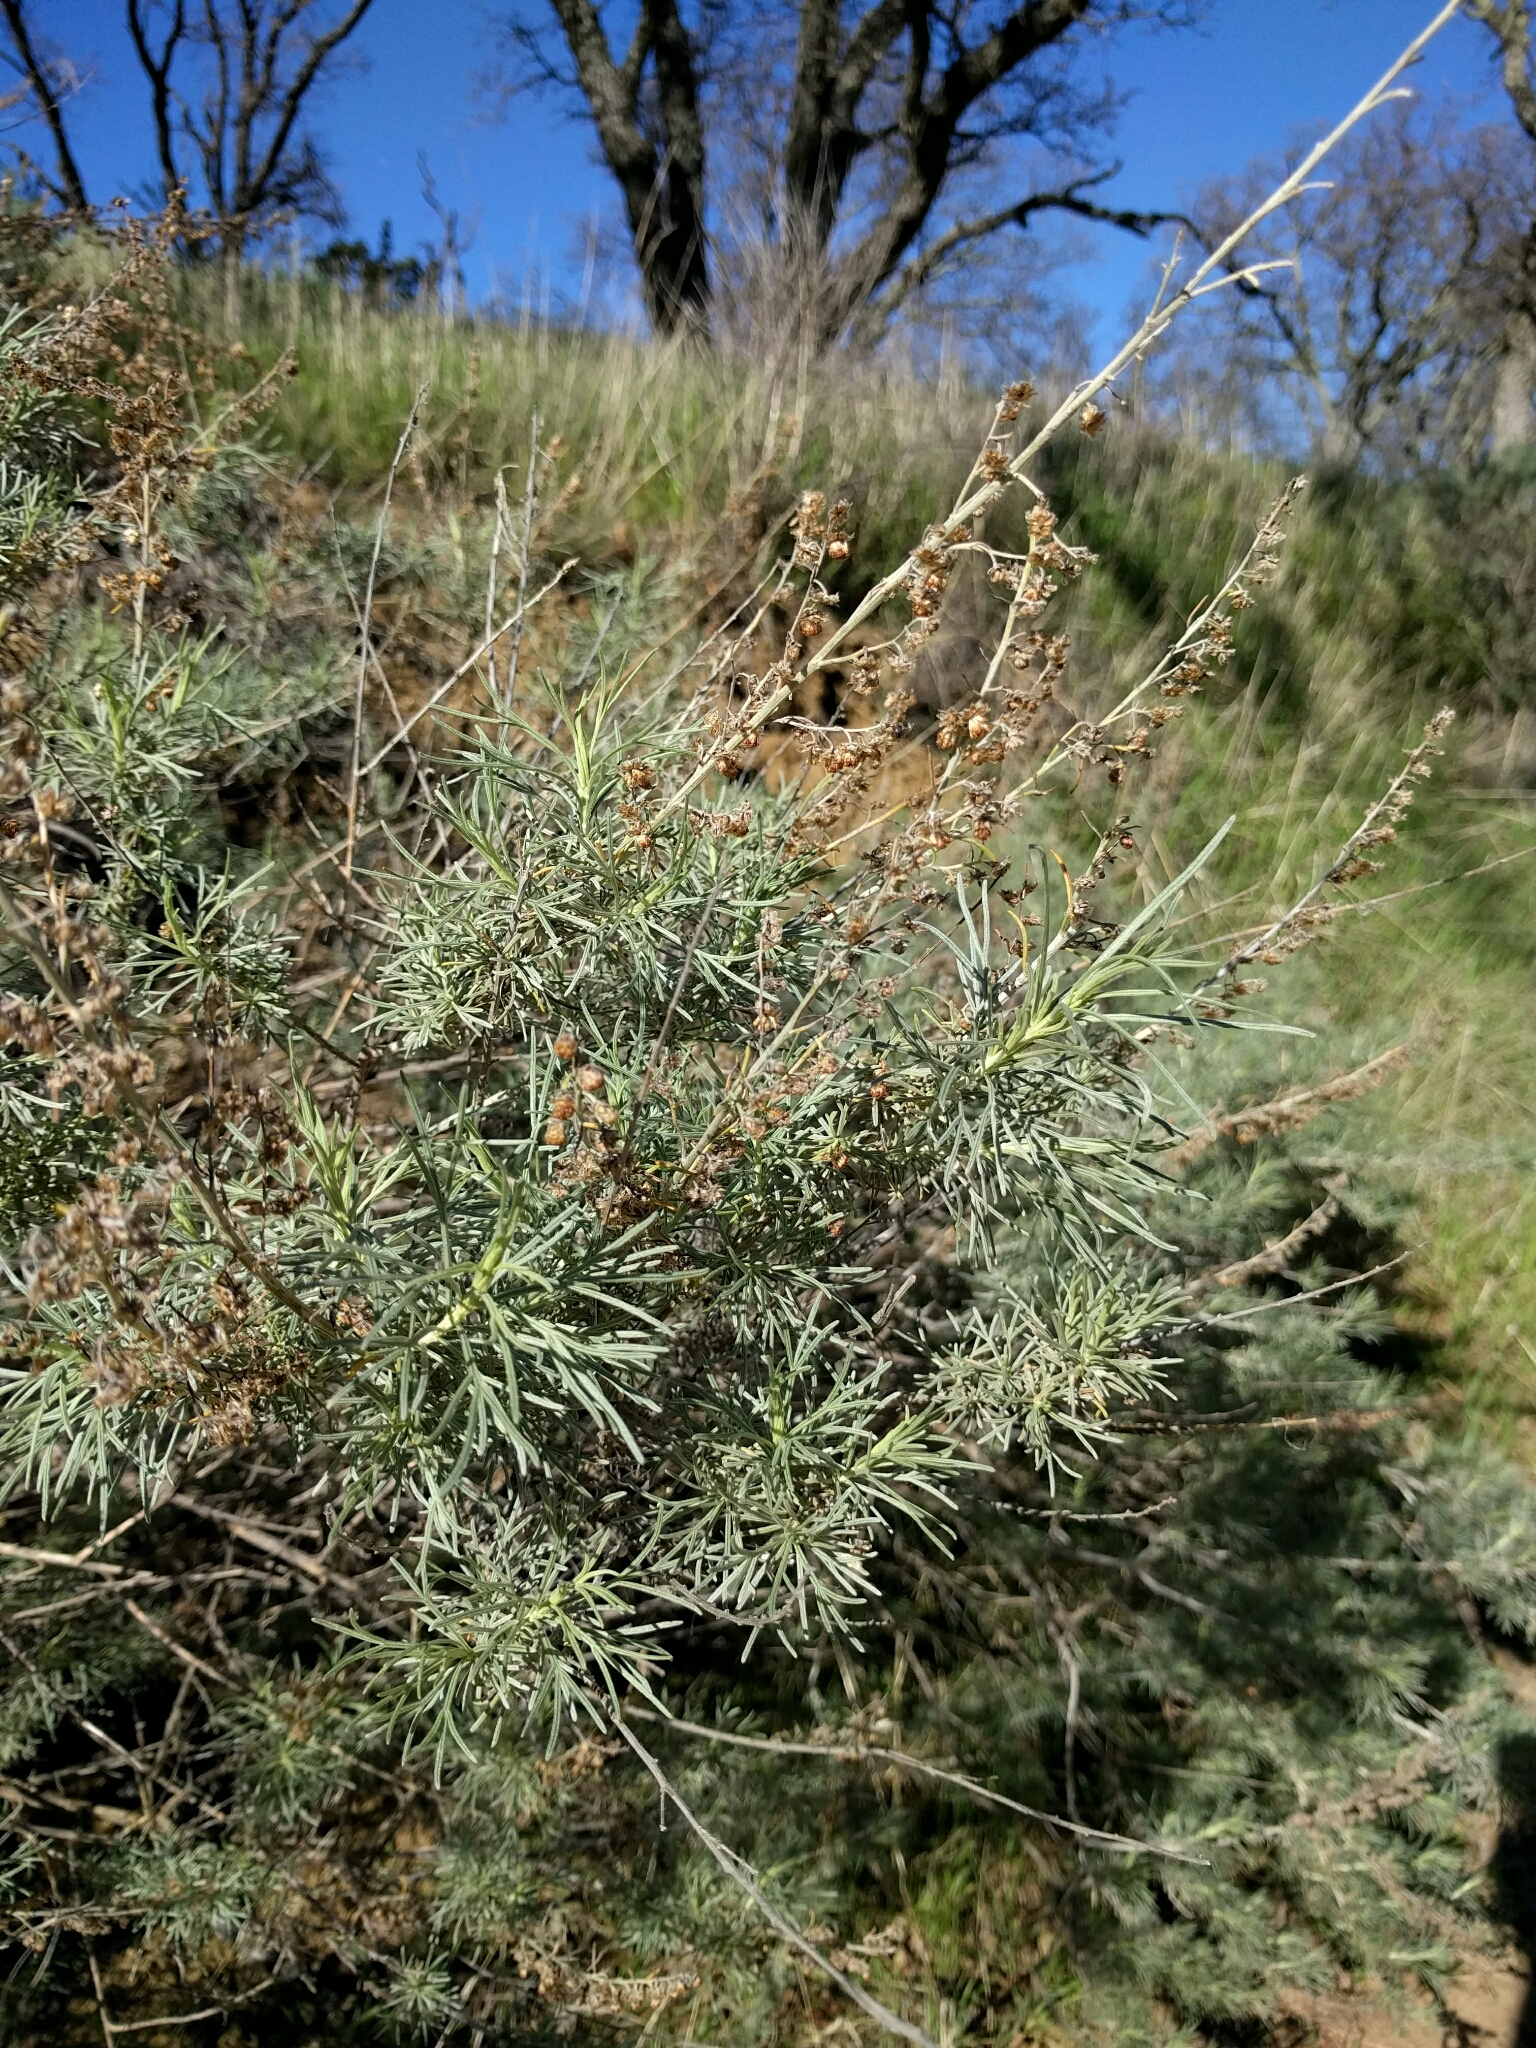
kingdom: Plantae
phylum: Tracheophyta
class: Magnoliopsida
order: Asterales
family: Asteraceae
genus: Artemisia
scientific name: Artemisia californica
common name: California sagebrush
